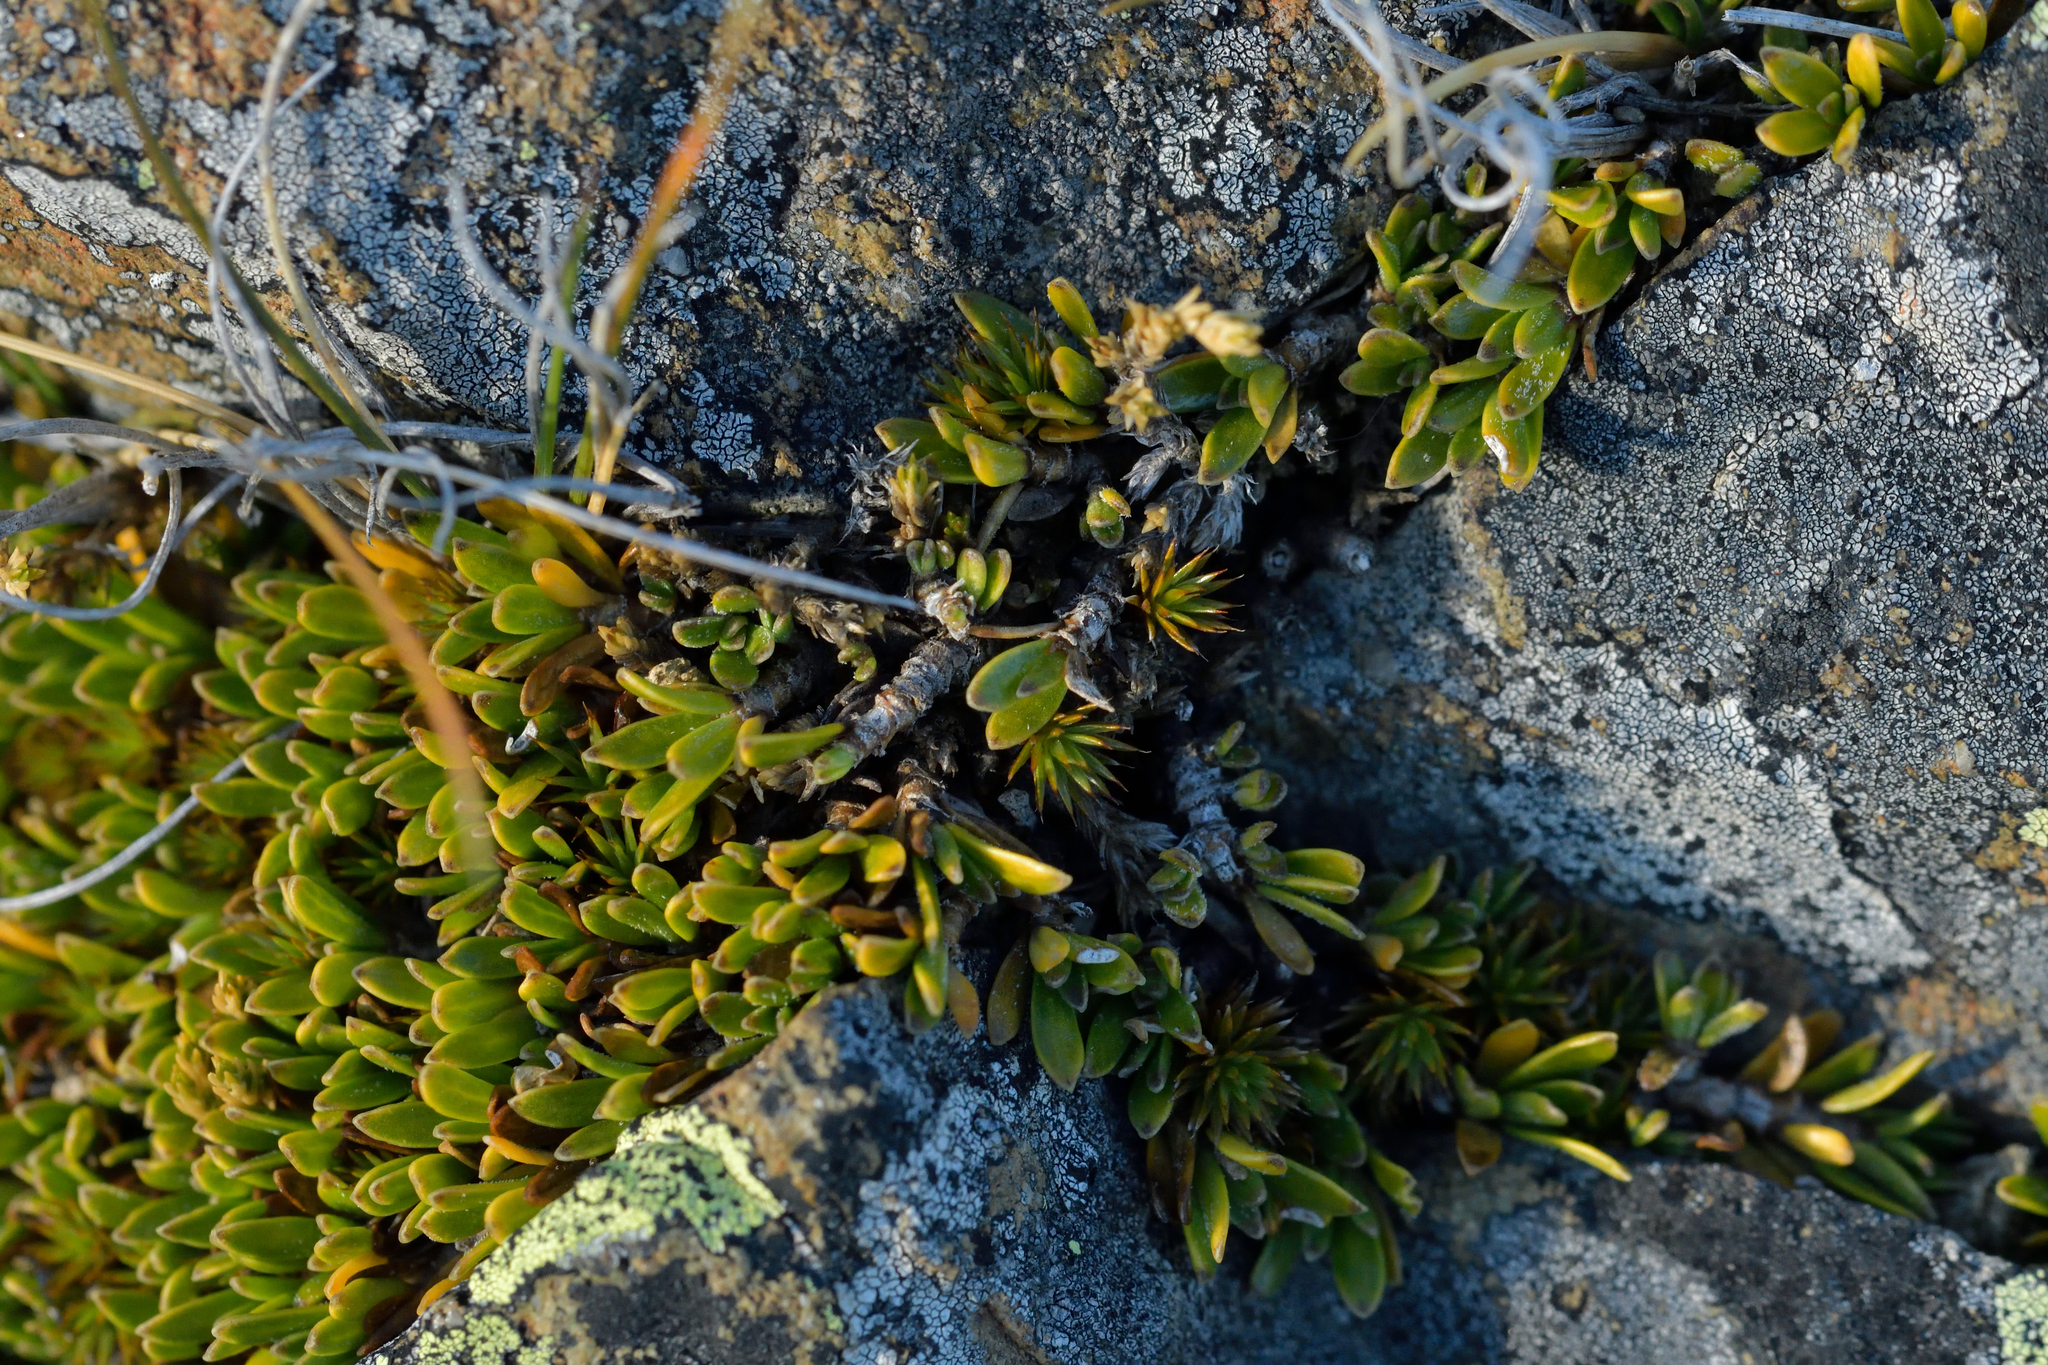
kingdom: Plantae
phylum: Tracheophyta
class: Magnoliopsida
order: Gentianales
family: Rubiaceae
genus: Coprosma
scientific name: Coprosma petriei
